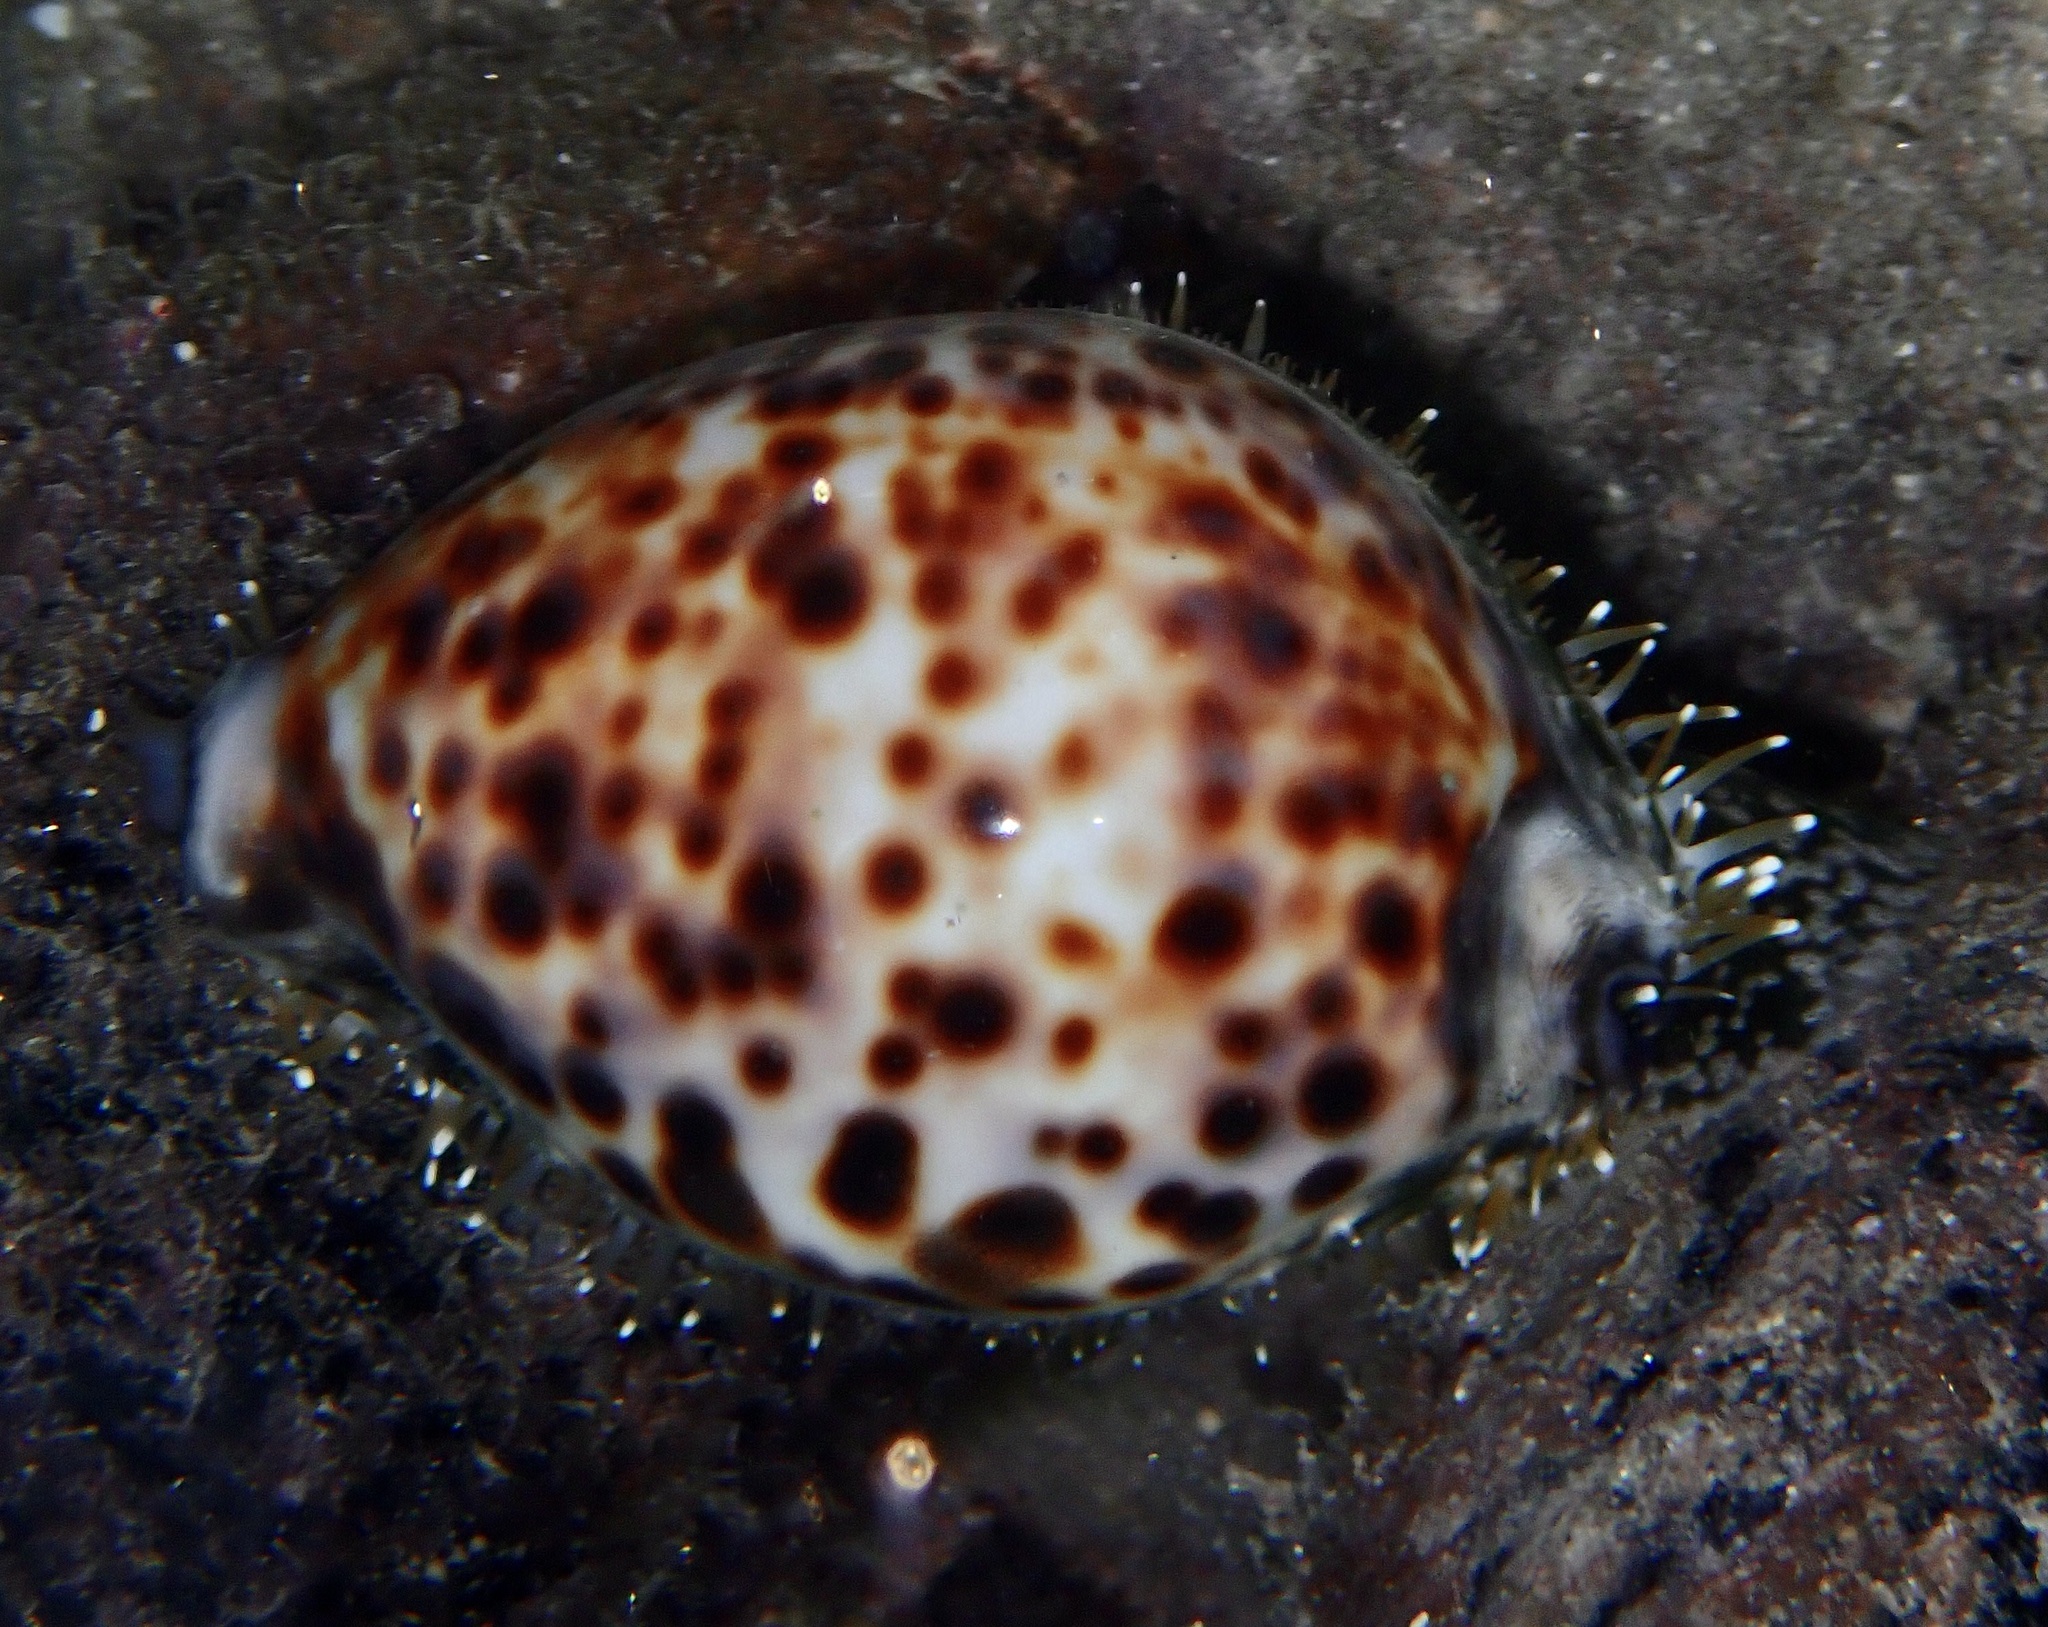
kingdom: Animalia
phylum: Mollusca
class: Gastropoda
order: Littorinimorpha
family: Cypraeidae
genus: Cypraea
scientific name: Cypraea tigris
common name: Tiger cowrie
